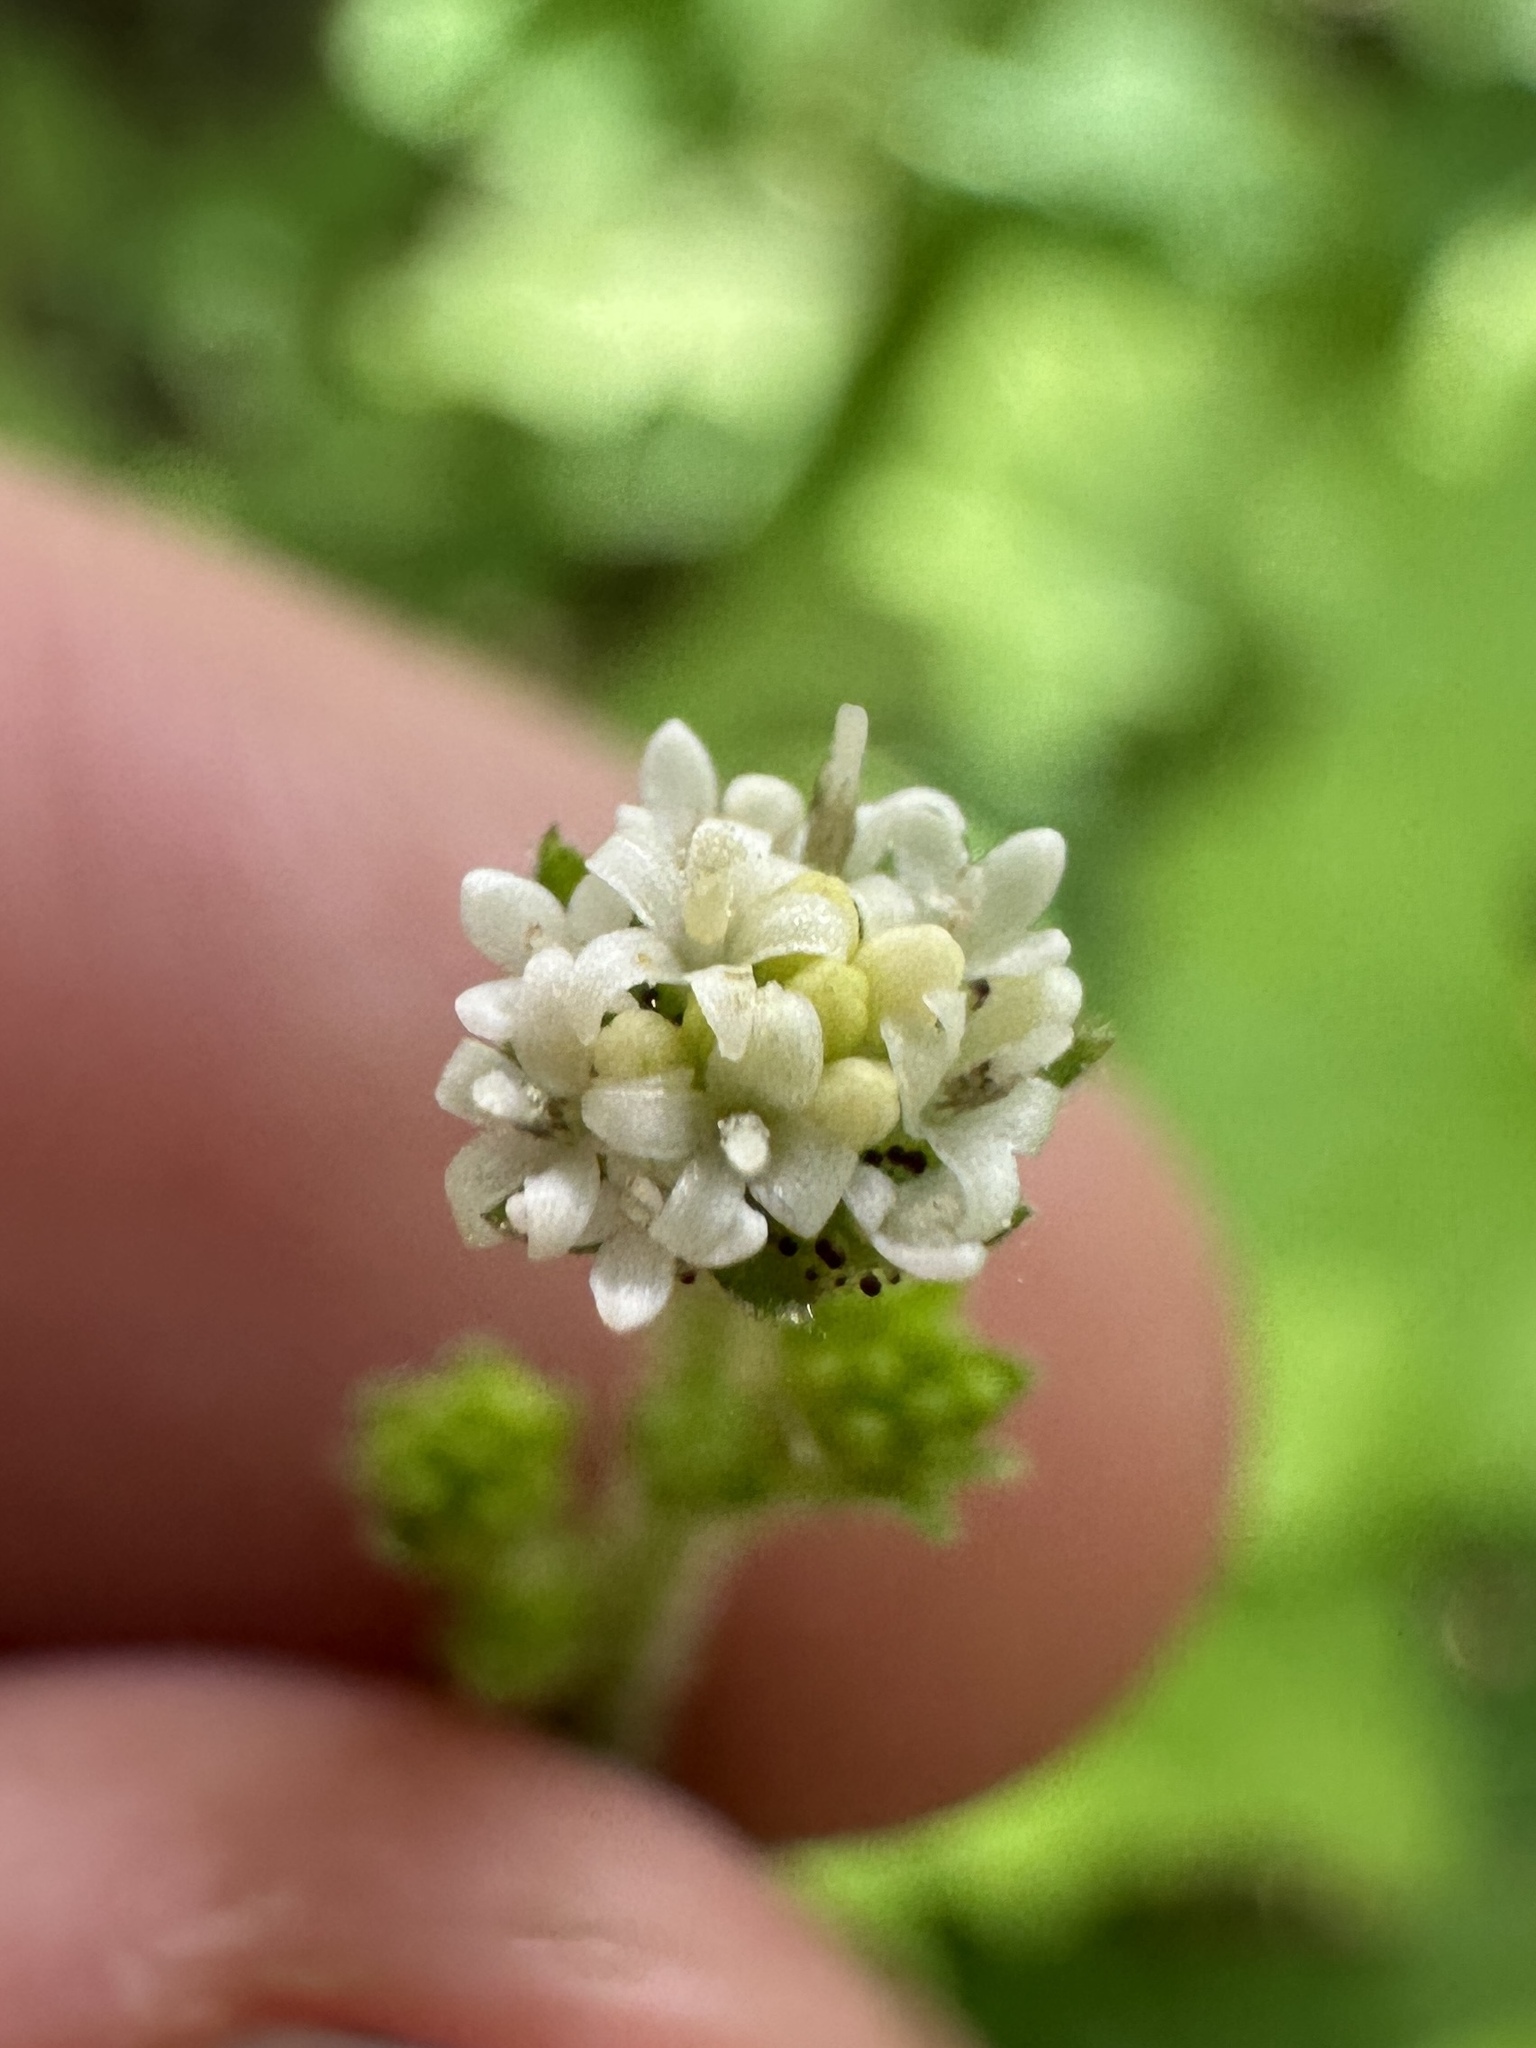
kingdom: Plantae
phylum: Tracheophyta
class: Magnoliopsida
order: Asterales
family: Asteraceae
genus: Adenocaulon
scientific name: Adenocaulon bicolor
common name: Trailplant
